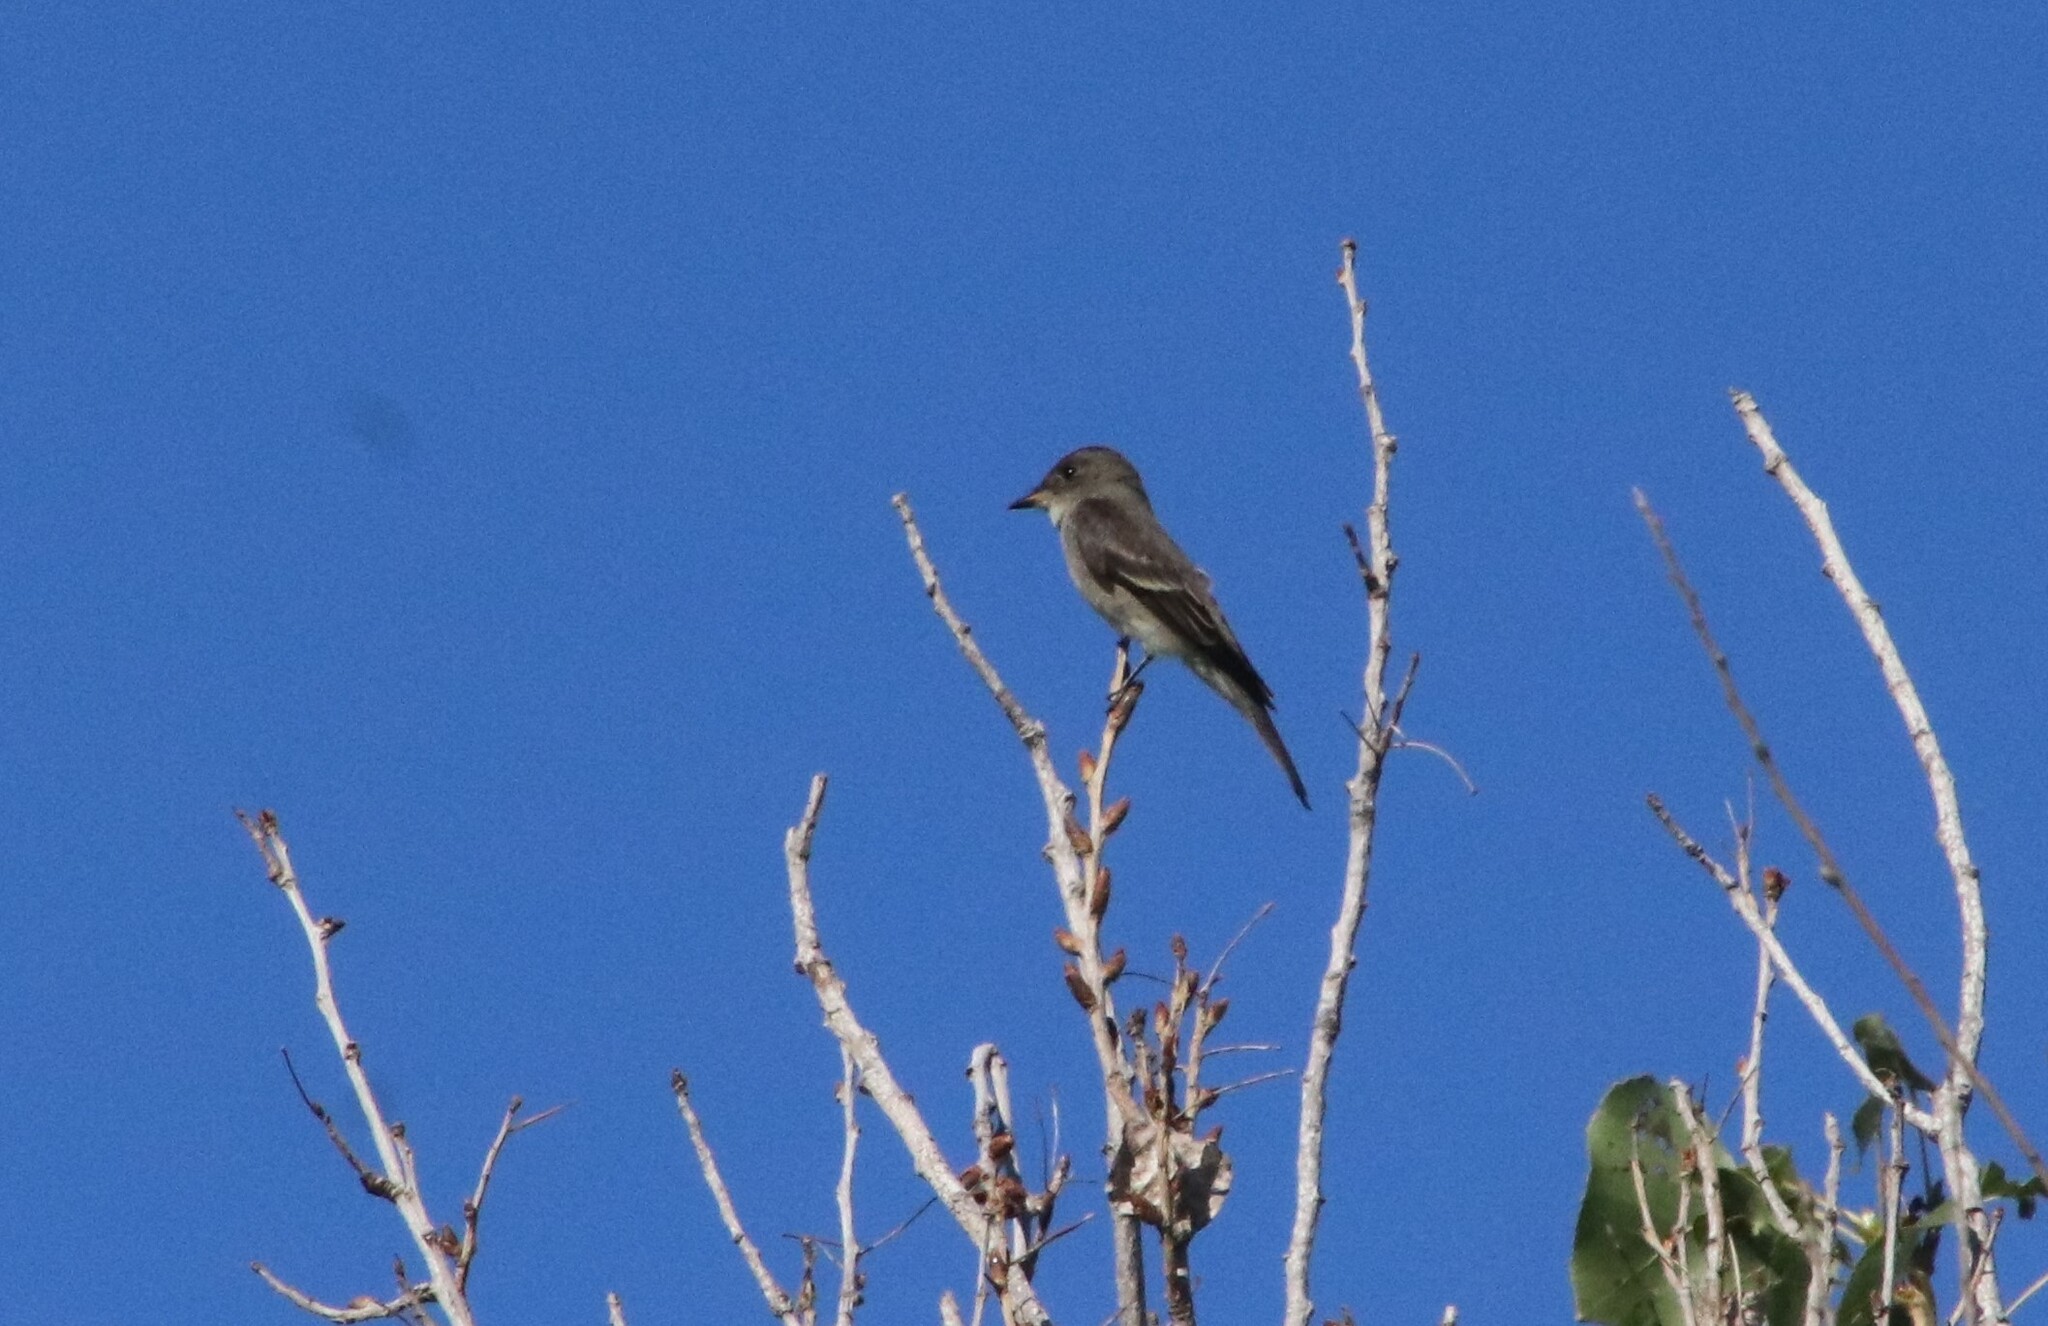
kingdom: Animalia
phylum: Chordata
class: Aves
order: Passeriformes
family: Tyrannidae
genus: Contopus
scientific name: Contopus sordidulus
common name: Western wood-pewee
